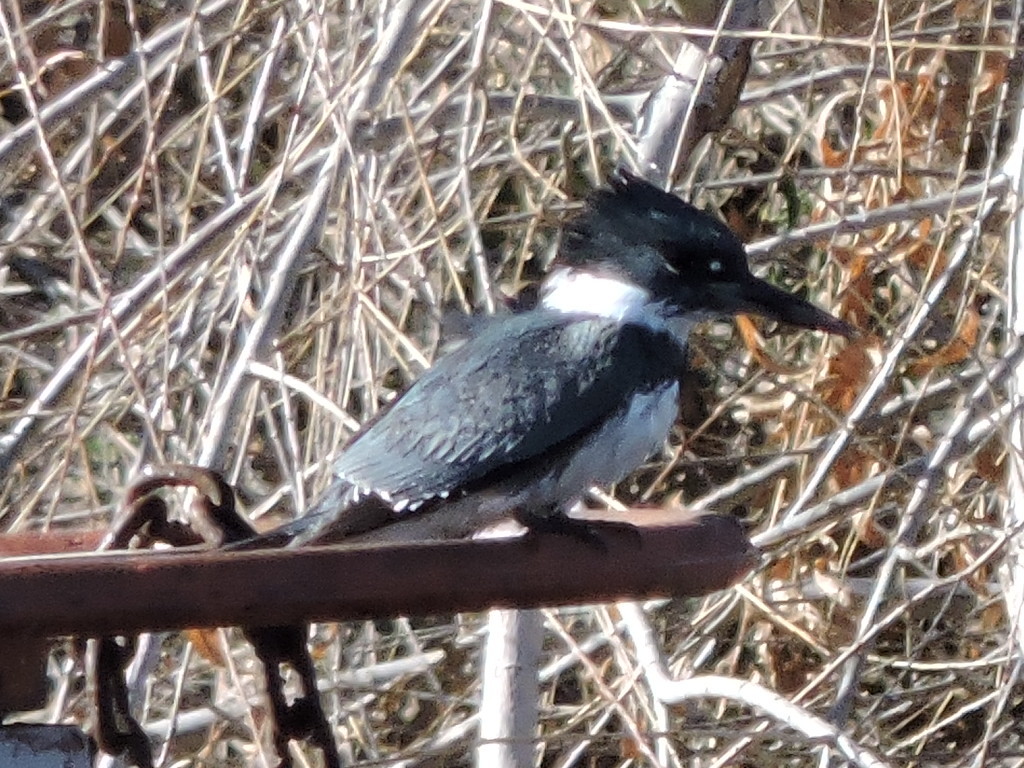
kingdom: Animalia
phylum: Chordata
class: Aves
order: Coraciiformes
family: Alcedinidae
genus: Megaceryle
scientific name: Megaceryle alcyon
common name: Belted kingfisher
